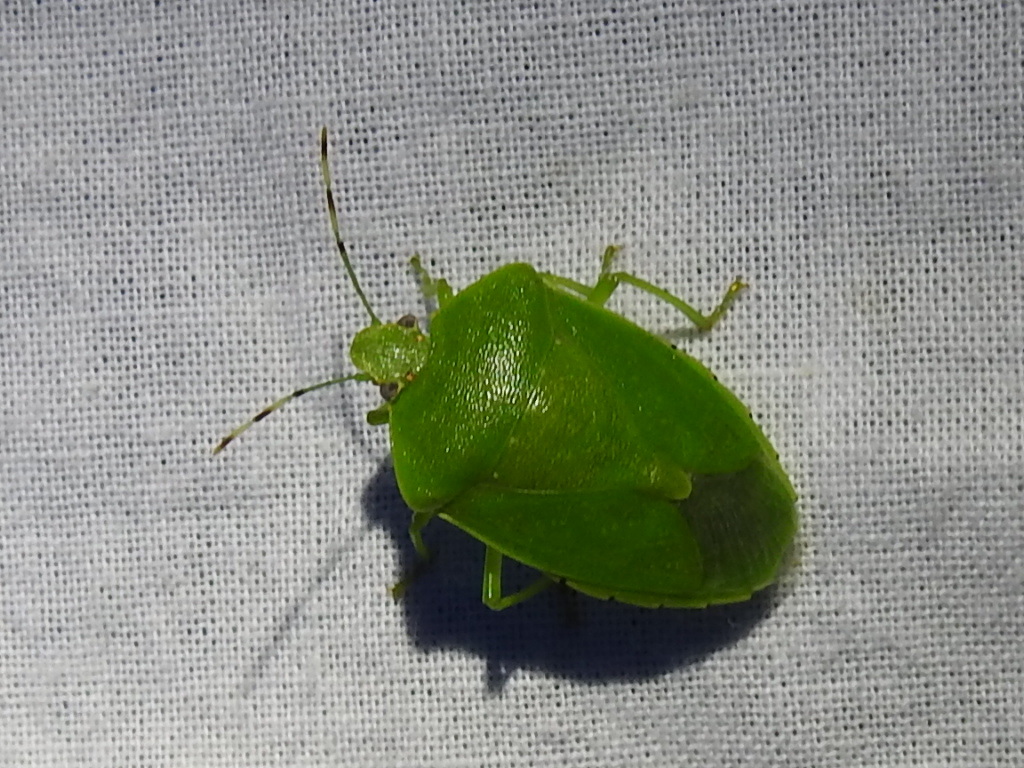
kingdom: Animalia
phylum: Arthropoda
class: Insecta
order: Hemiptera
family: Pentatomidae
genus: Chinavia
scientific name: Chinavia hilaris
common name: Green stink bug
